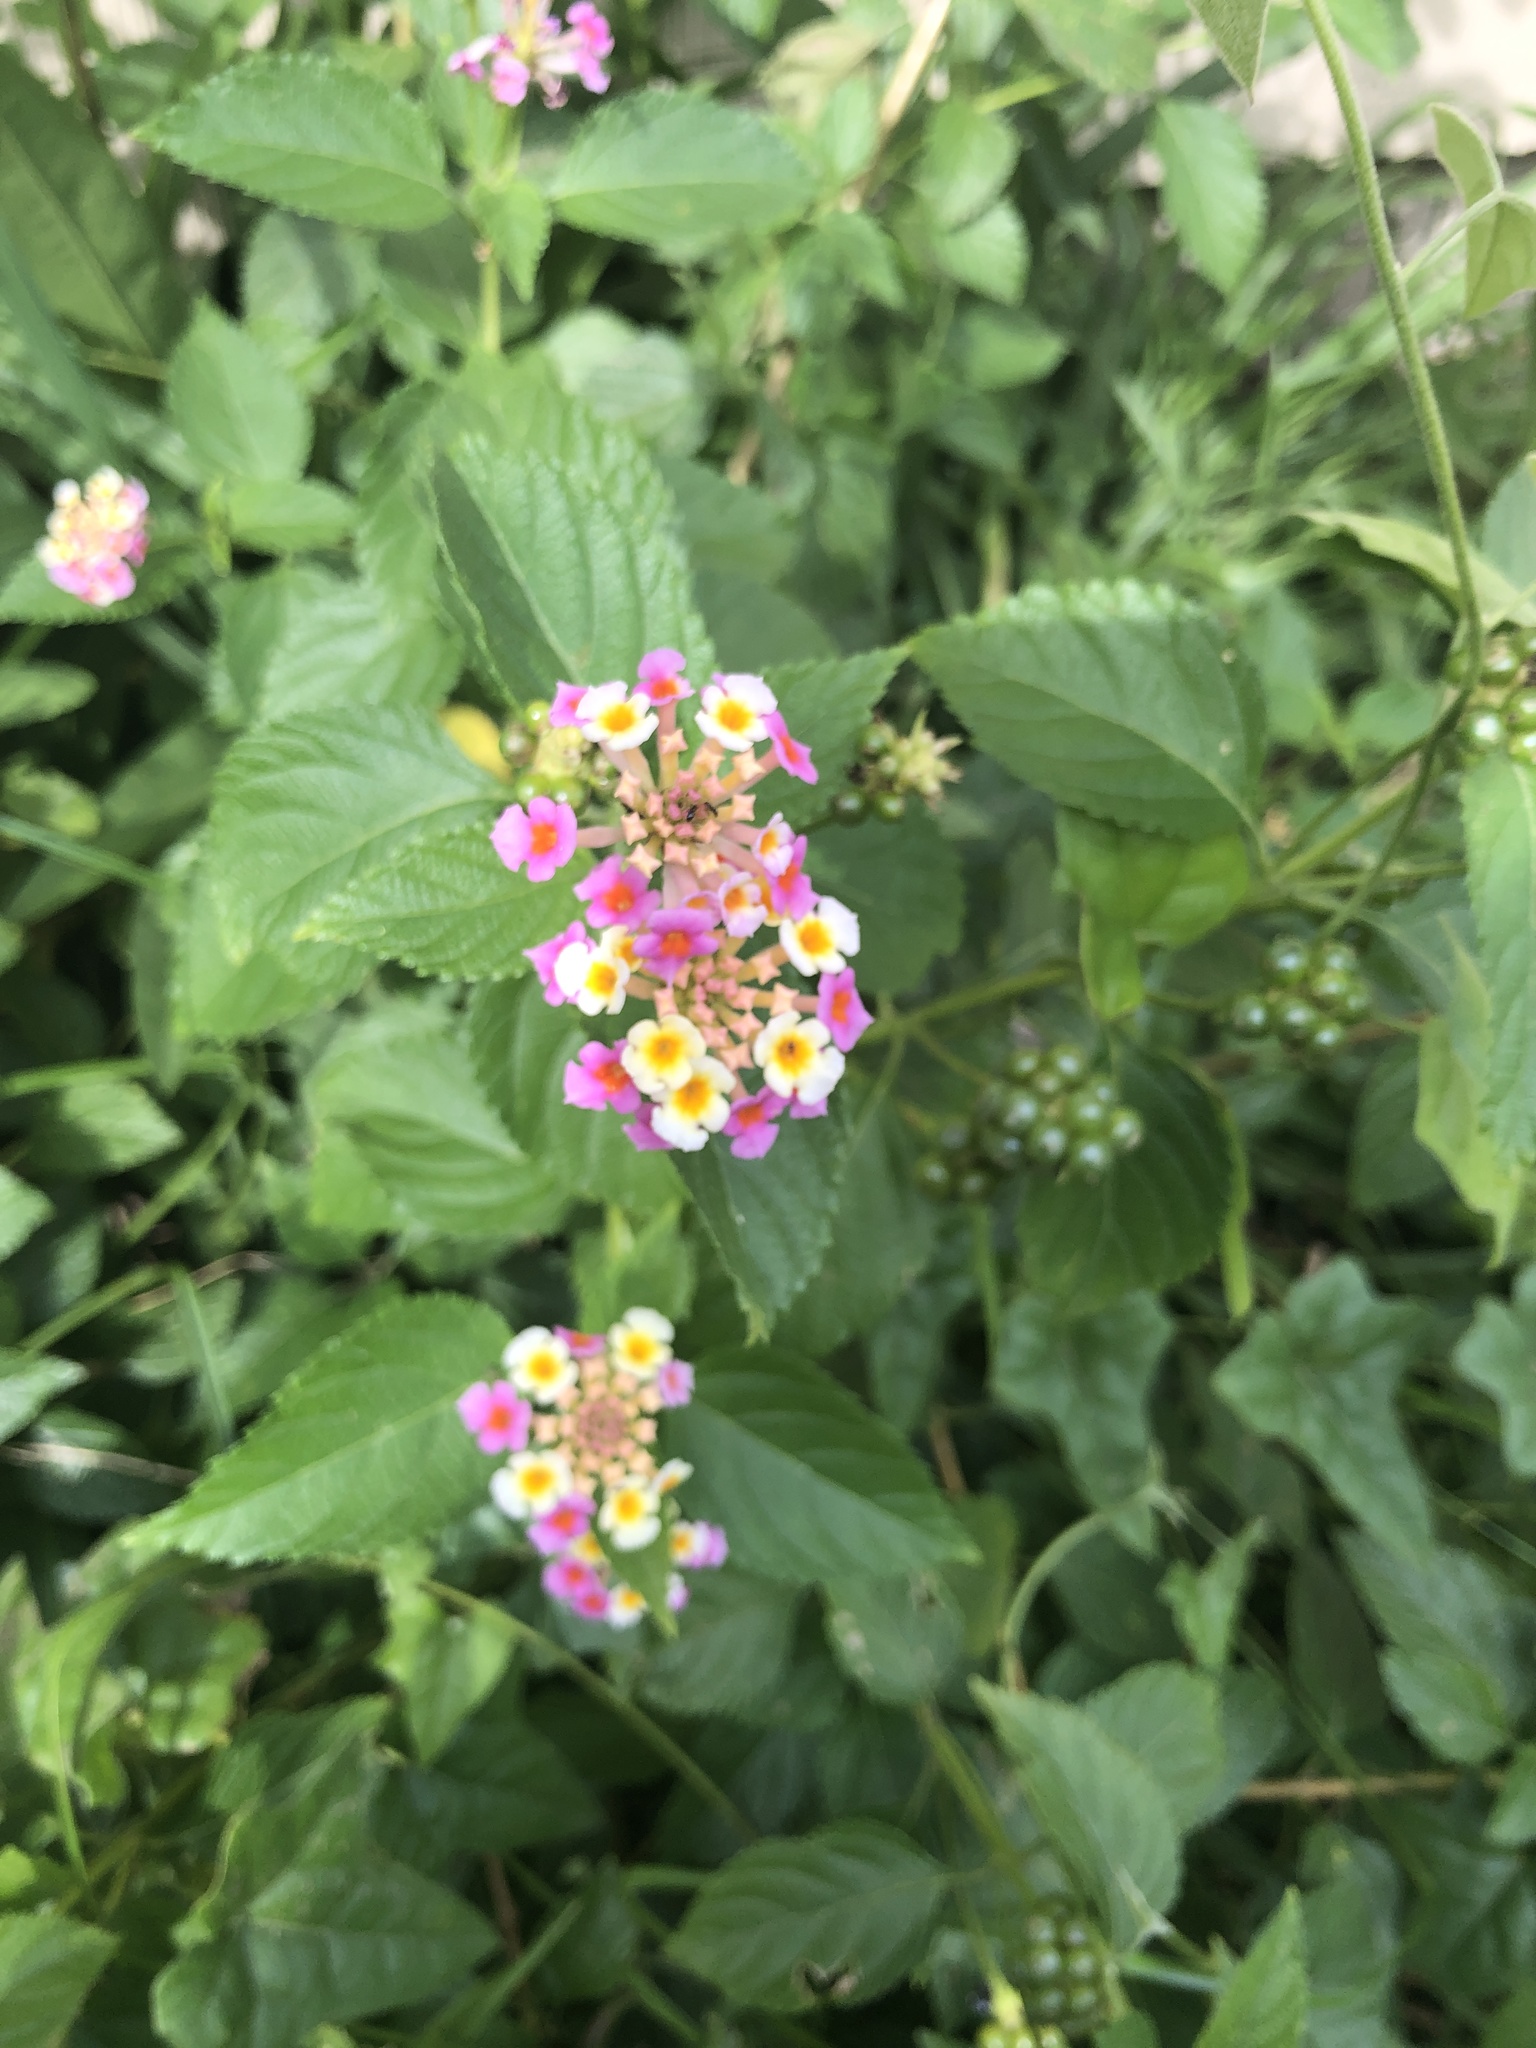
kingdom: Plantae
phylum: Tracheophyta
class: Magnoliopsida
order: Lamiales
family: Verbenaceae
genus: Lantana
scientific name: Lantana strigocamara
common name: Lantana
